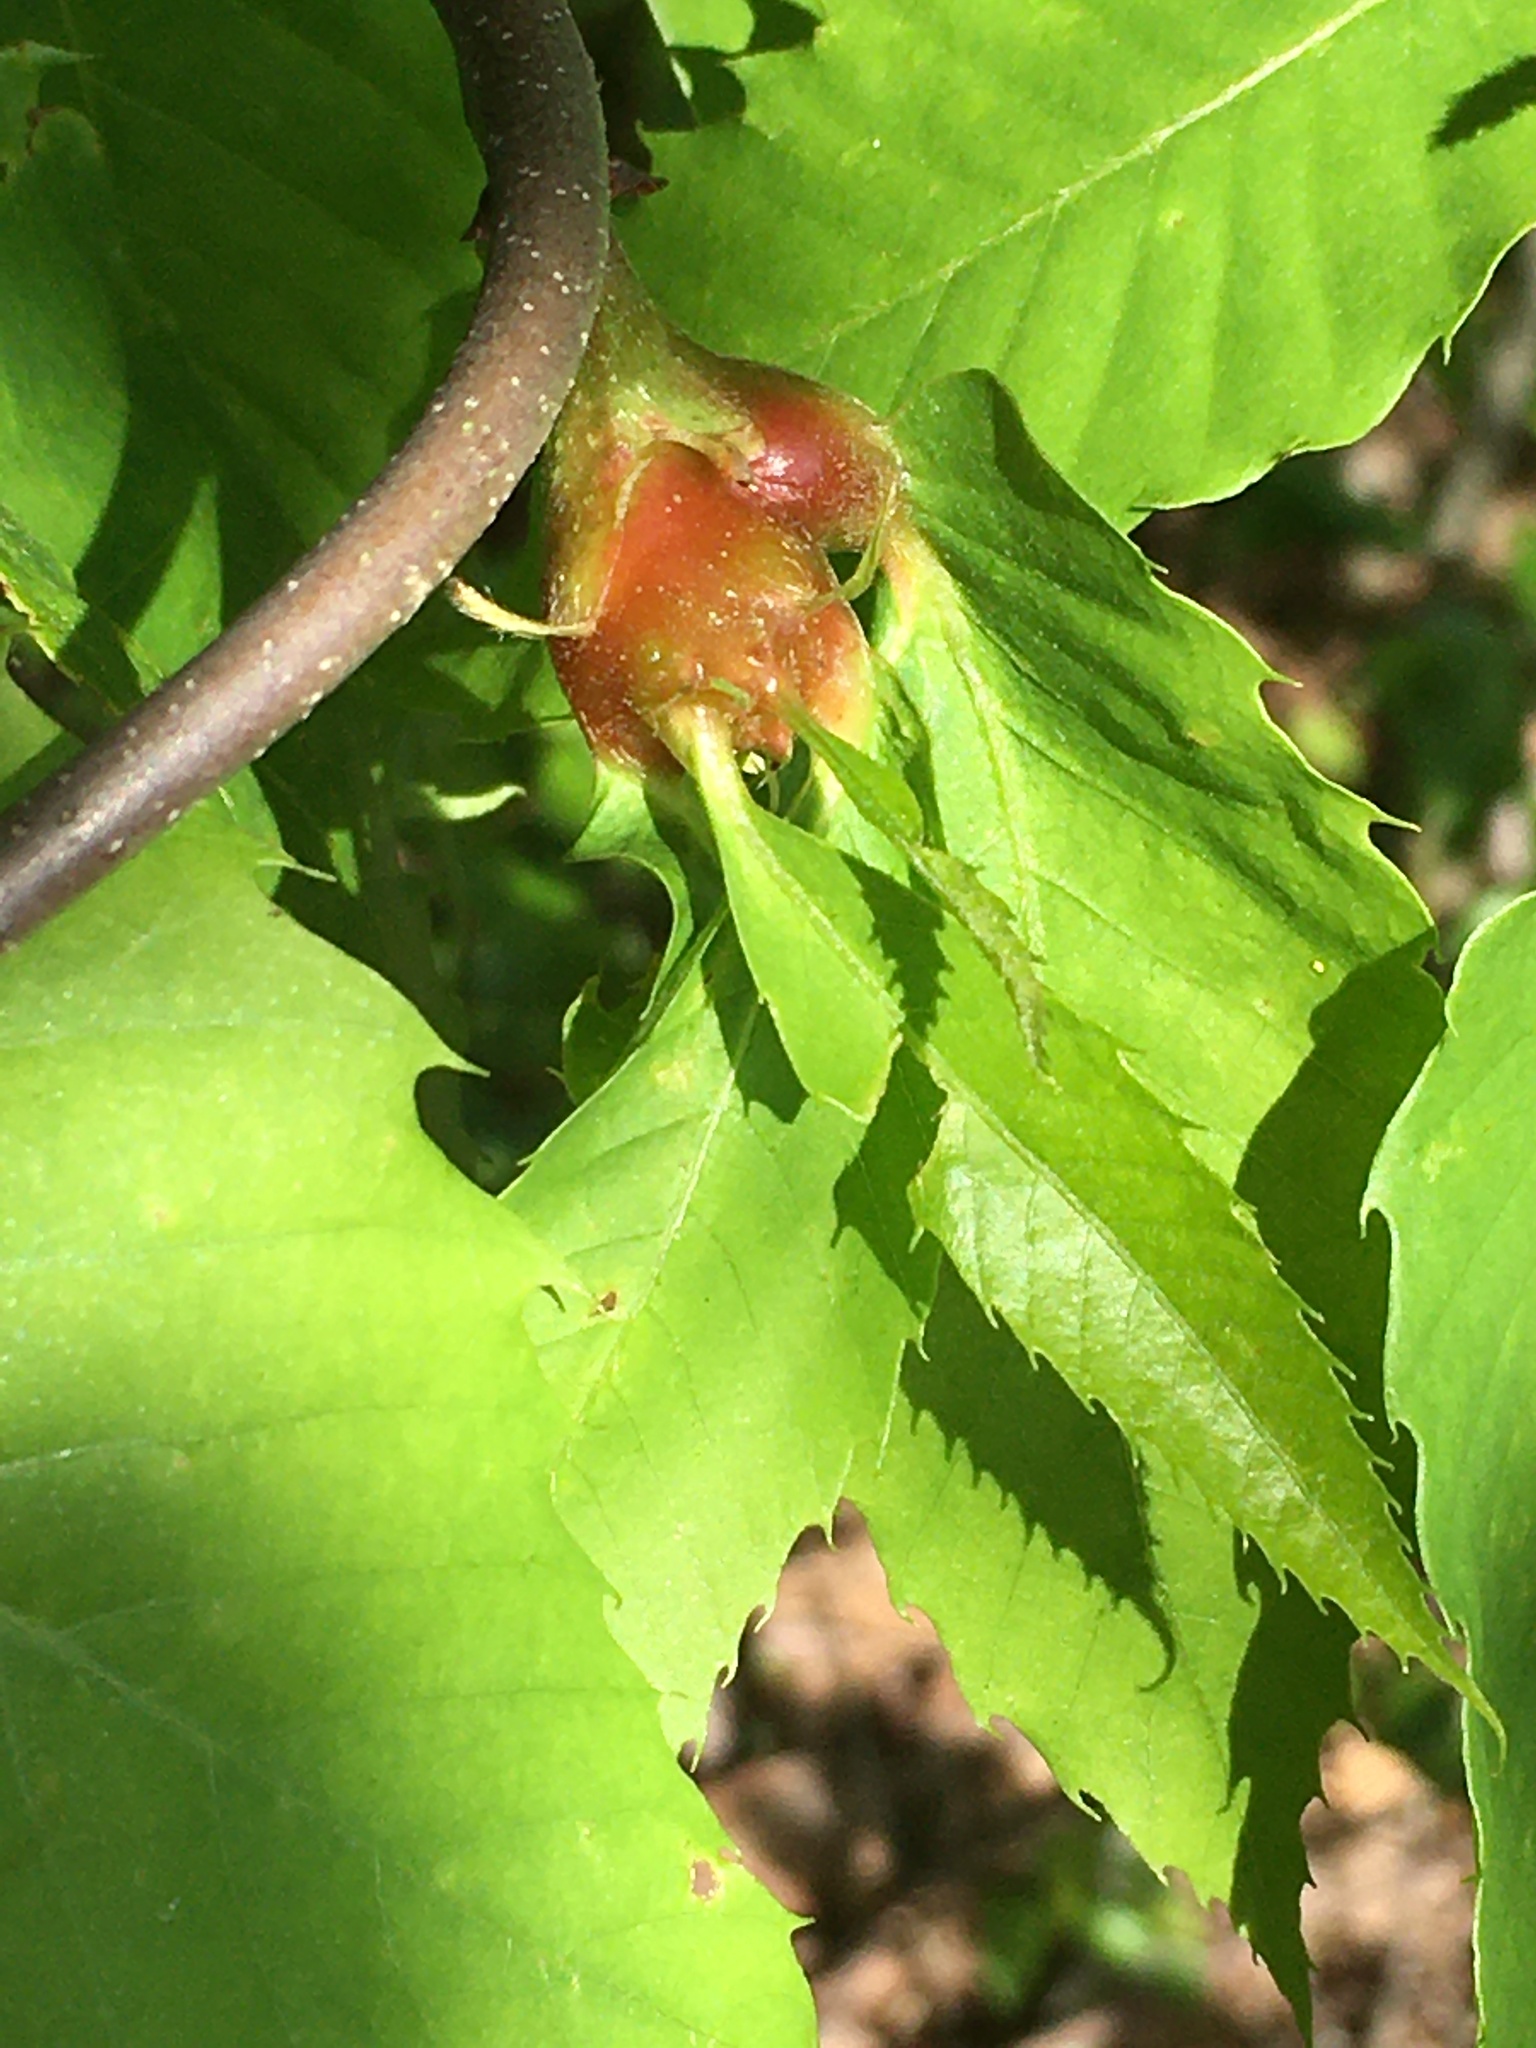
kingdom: Animalia
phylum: Arthropoda
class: Insecta
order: Hymenoptera
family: Cynipidae
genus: Dryocosmus
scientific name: Dryocosmus kuriphilus
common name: Asian chestnut gall wasp
